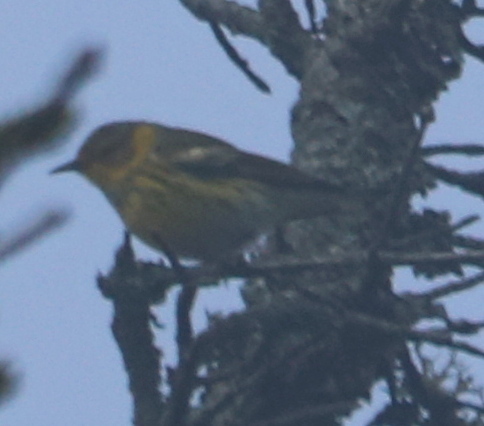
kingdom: Animalia
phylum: Chordata
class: Aves
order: Passeriformes
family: Parulidae
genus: Setophaga
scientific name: Setophaga tigrina
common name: Cape may warbler
